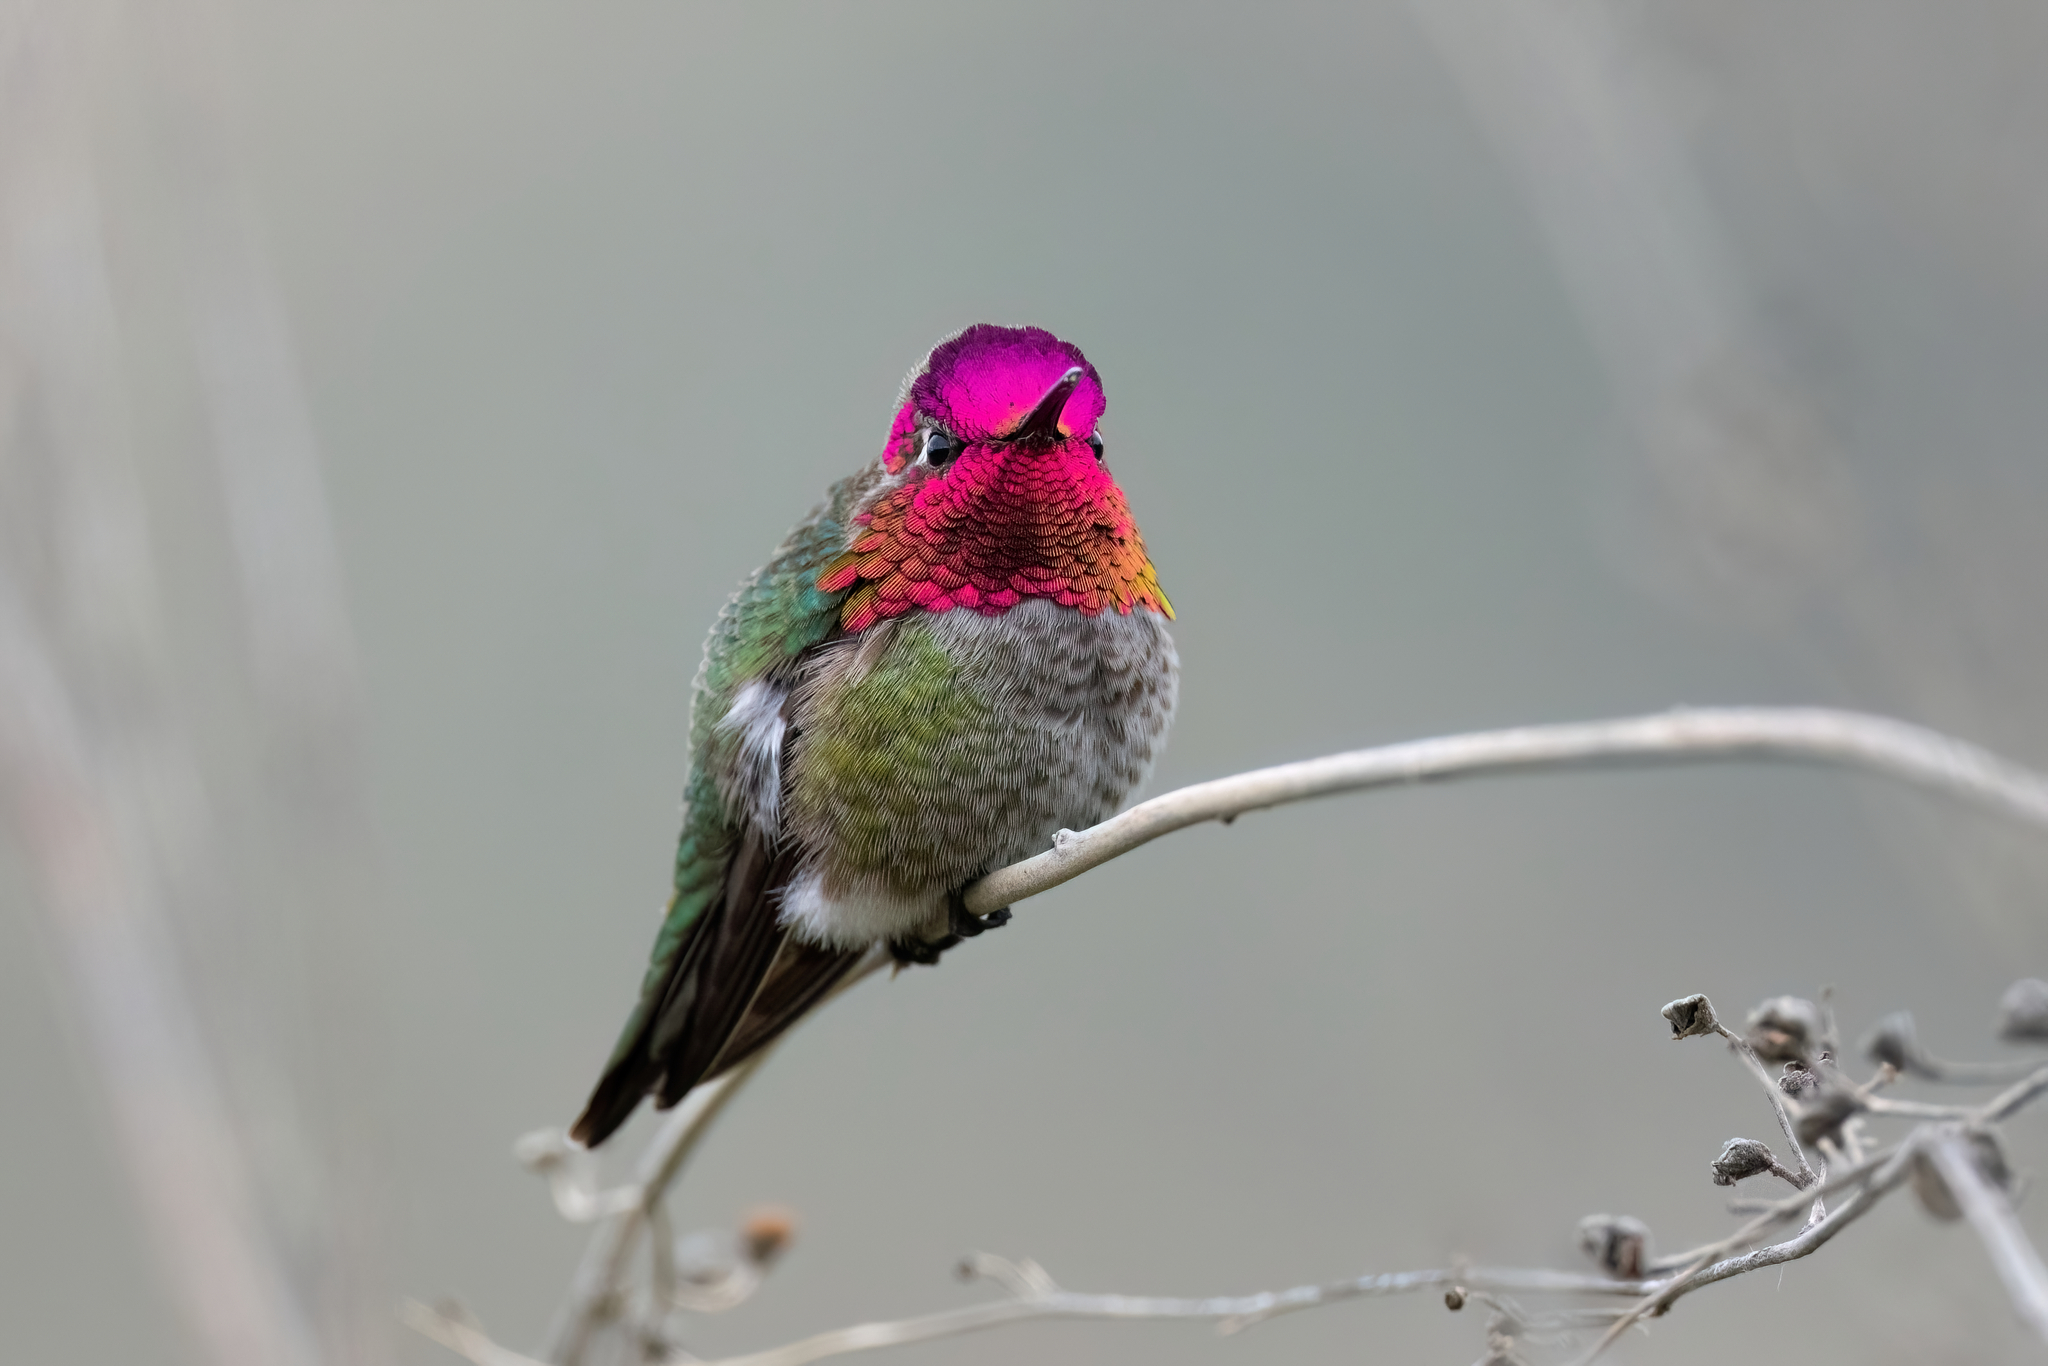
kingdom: Animalia
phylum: Chordata
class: Aves
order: Apodiformes
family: Trochilidae
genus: Calypte
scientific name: Calypte anna
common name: Anna's hummingbird
